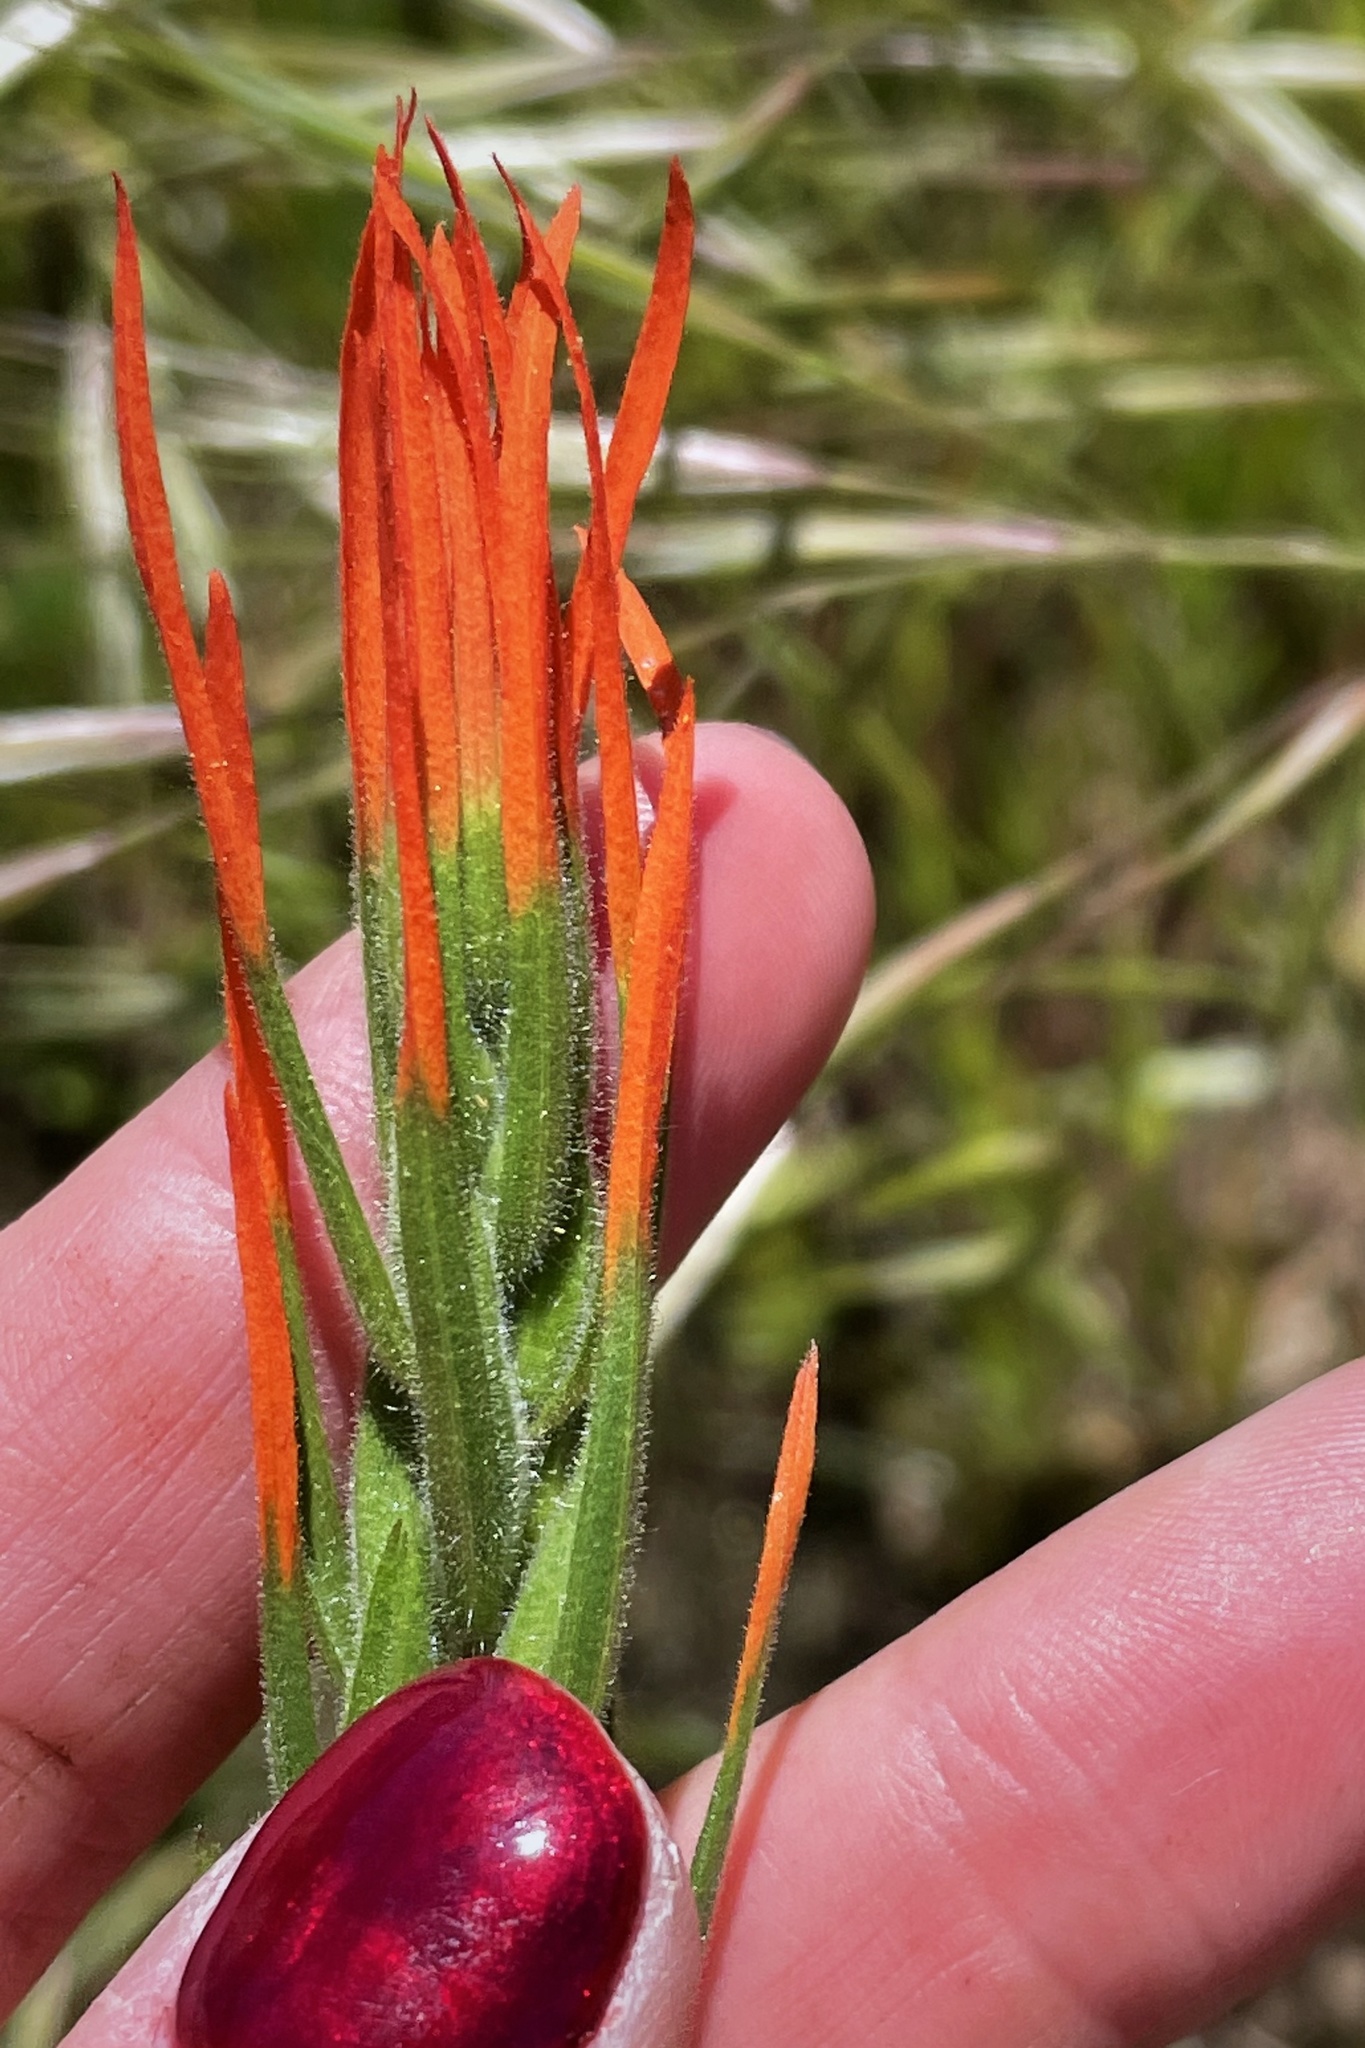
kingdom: Plantae
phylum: Tracheophyta
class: Magnoliopsida
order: Lamiales
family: Orobanchaceae
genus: Castilleja
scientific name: Castilleja minor
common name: Seep paintbrush
